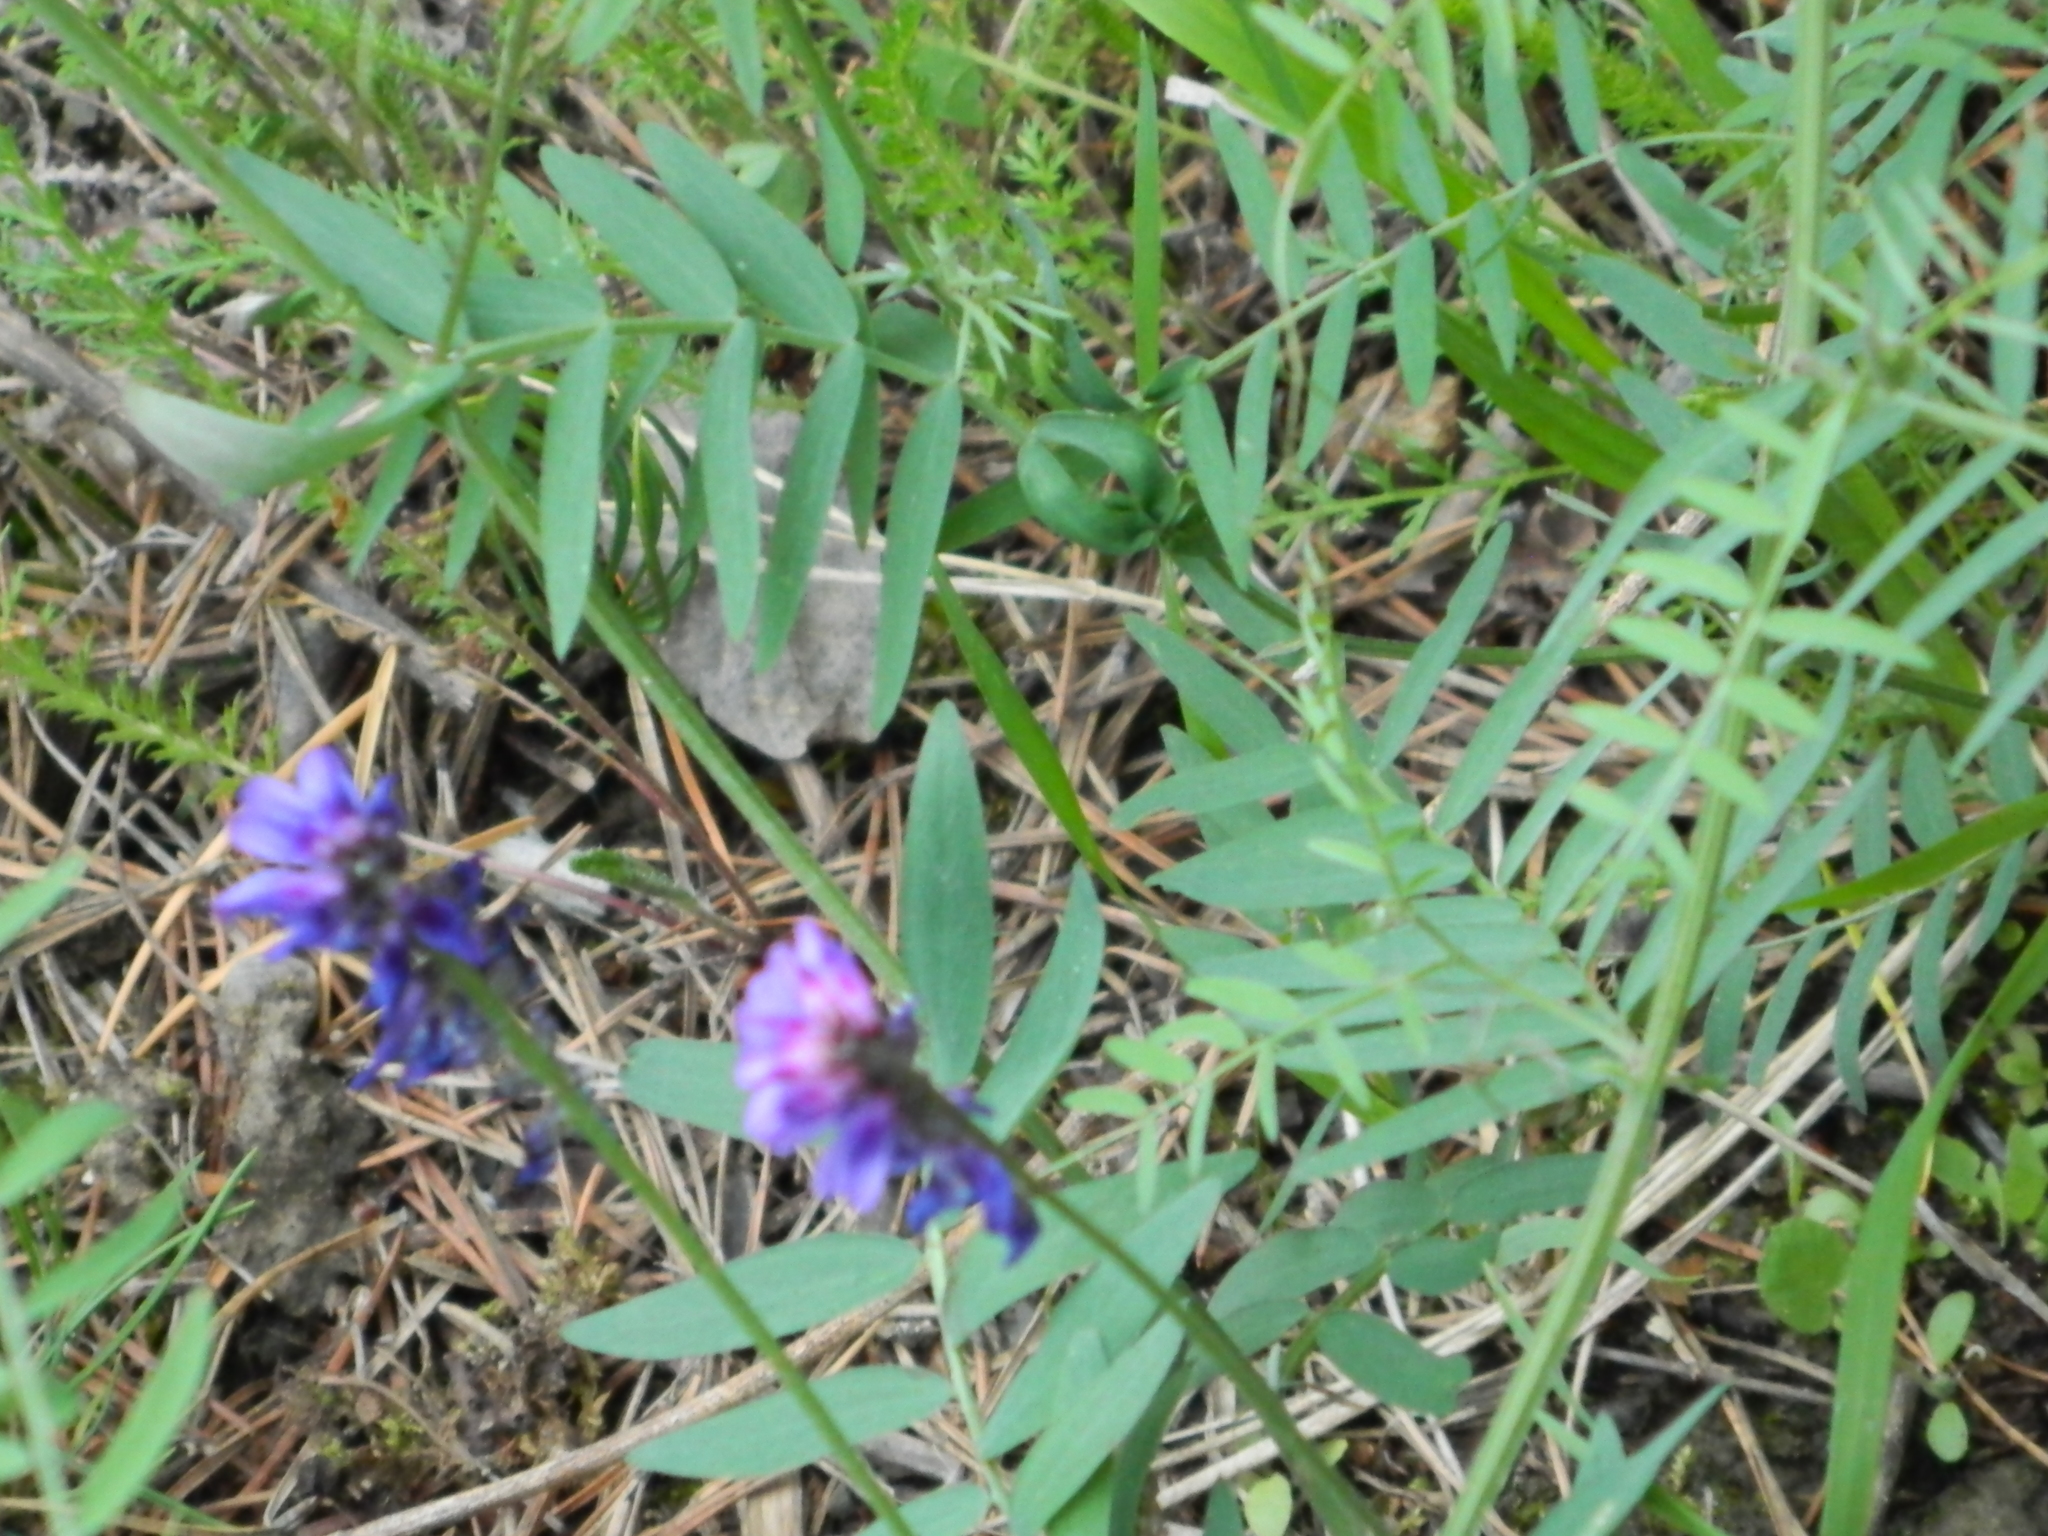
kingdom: Plantae
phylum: Tracheophyta
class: Magnoliopsida
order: Fabales
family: Fabaceae
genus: Vicia
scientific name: Vicia cracca
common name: Bird vetch
